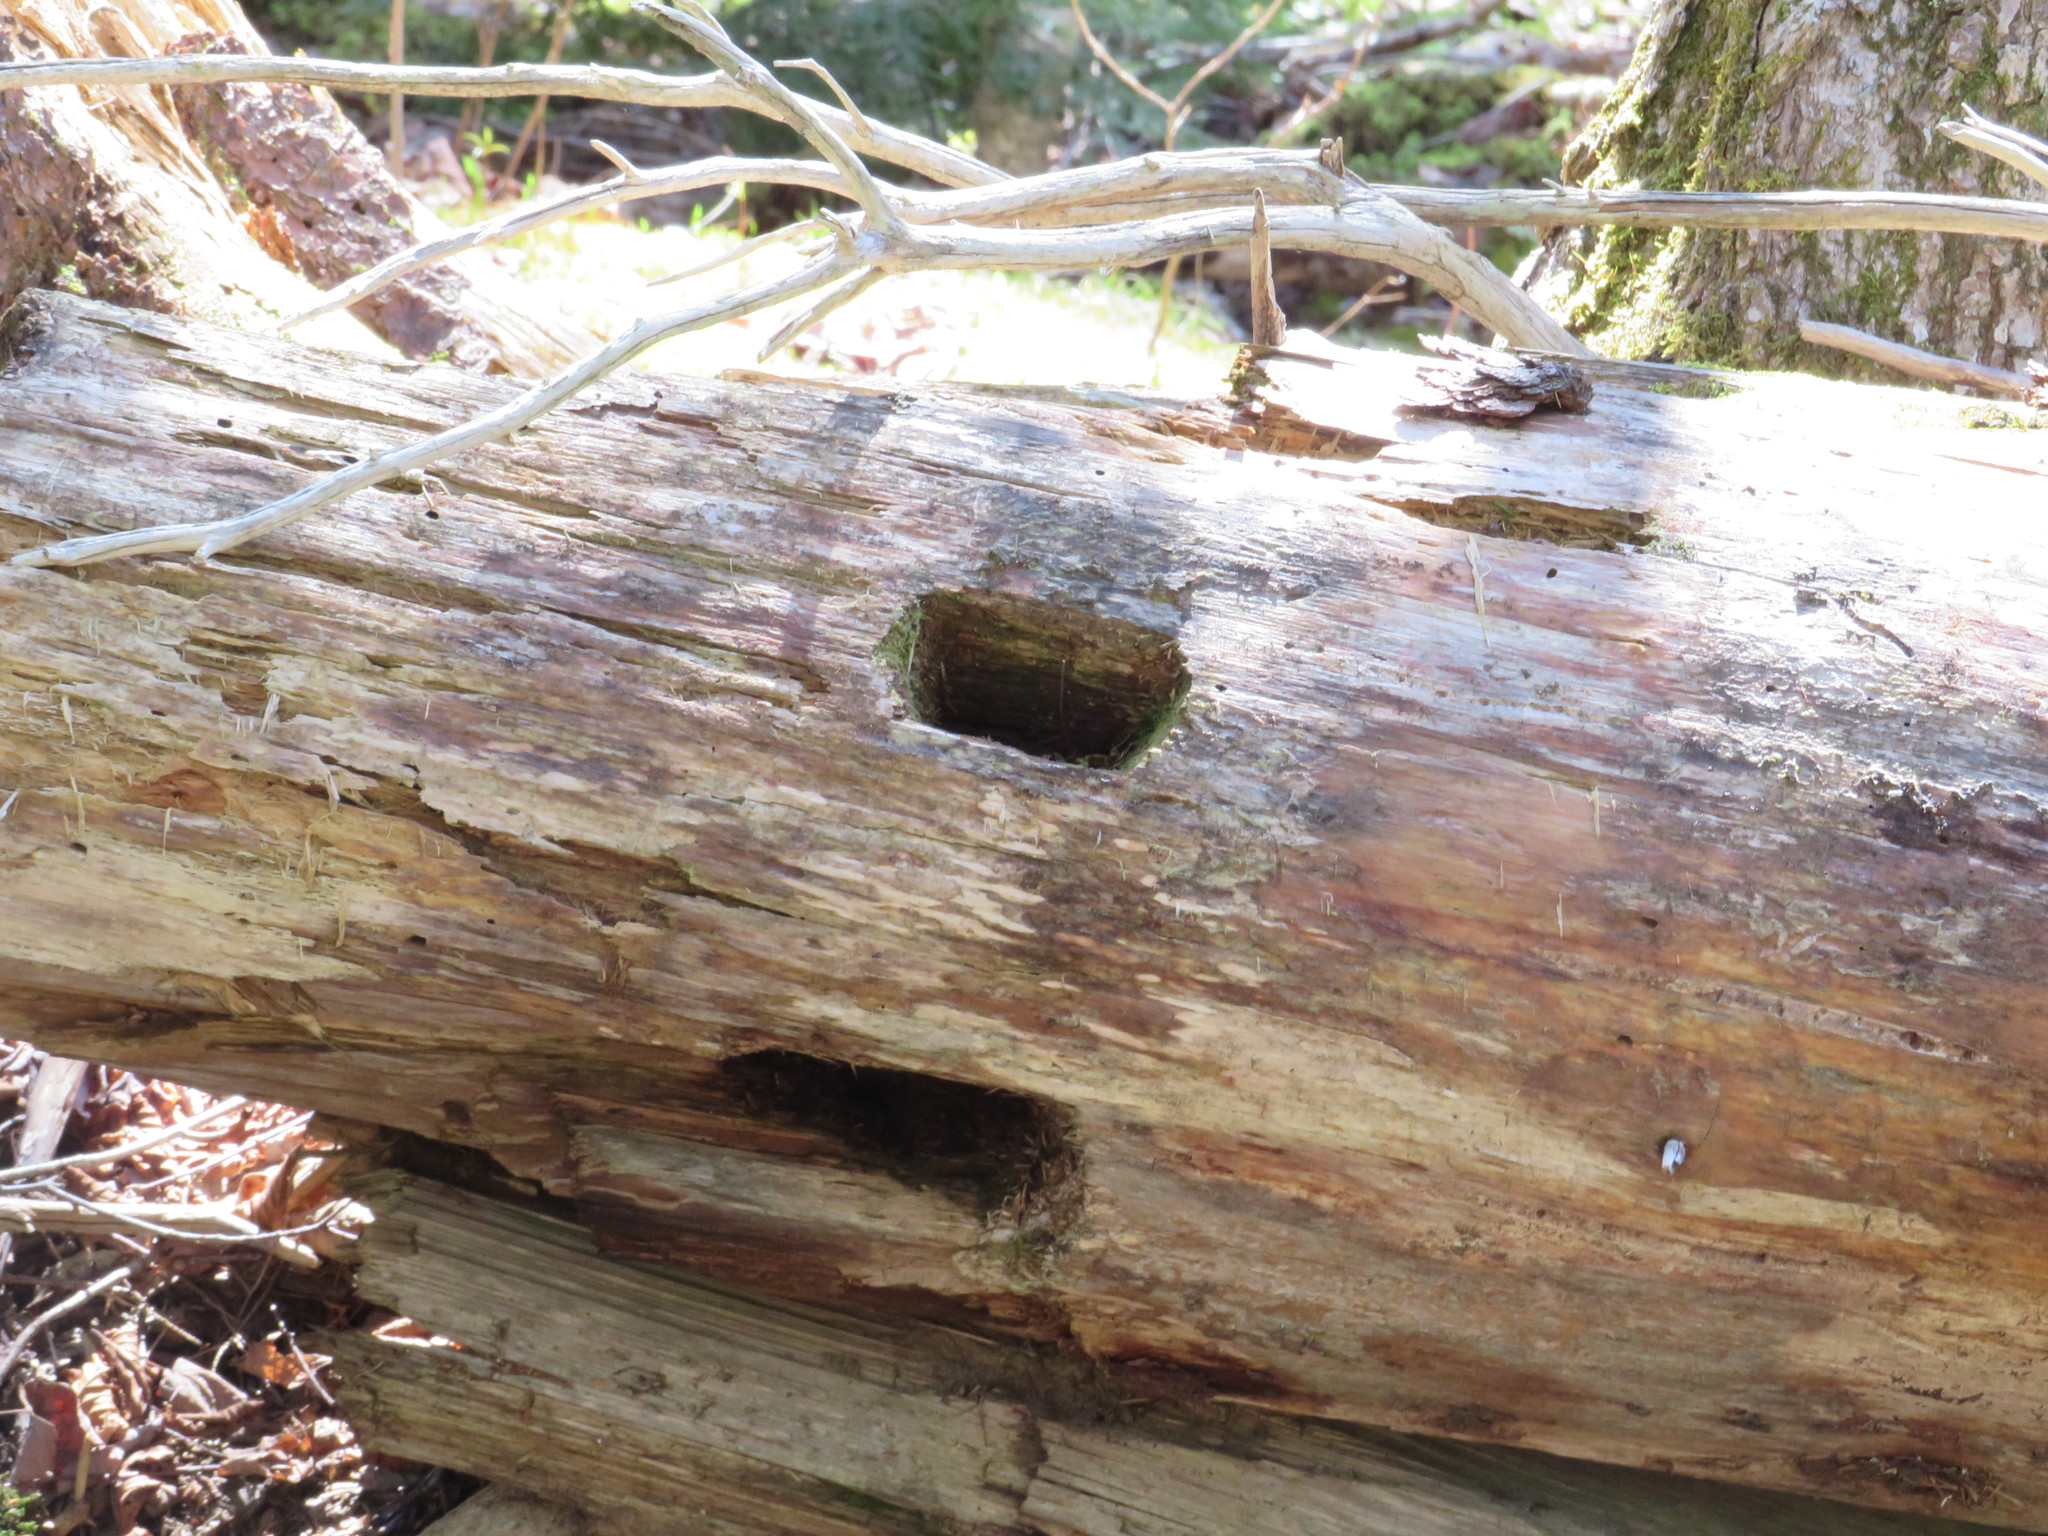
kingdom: Animalia
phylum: Chordata
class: Aves
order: Piciformes
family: Picidae
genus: Dryocopus
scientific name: Dryocopus pileatus
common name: Pileated woodpecker
